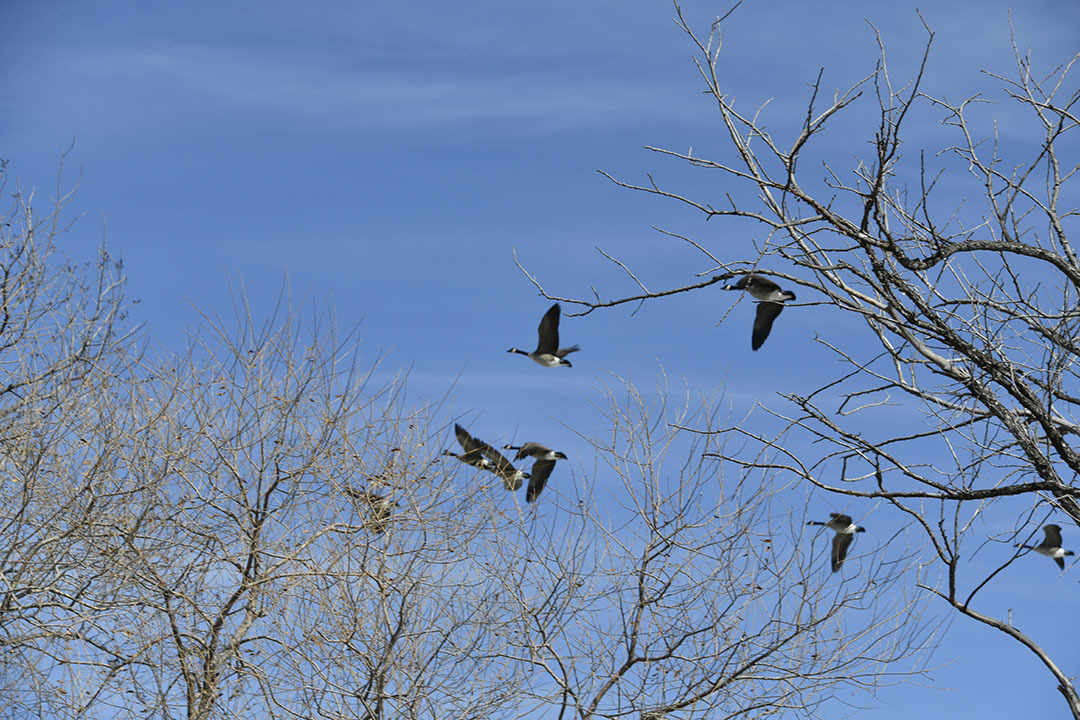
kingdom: Animalia
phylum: Chordata
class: Aves
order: Anseriformes
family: Anatidae
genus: Branta
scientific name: Branta canadensis
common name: Canada goose
